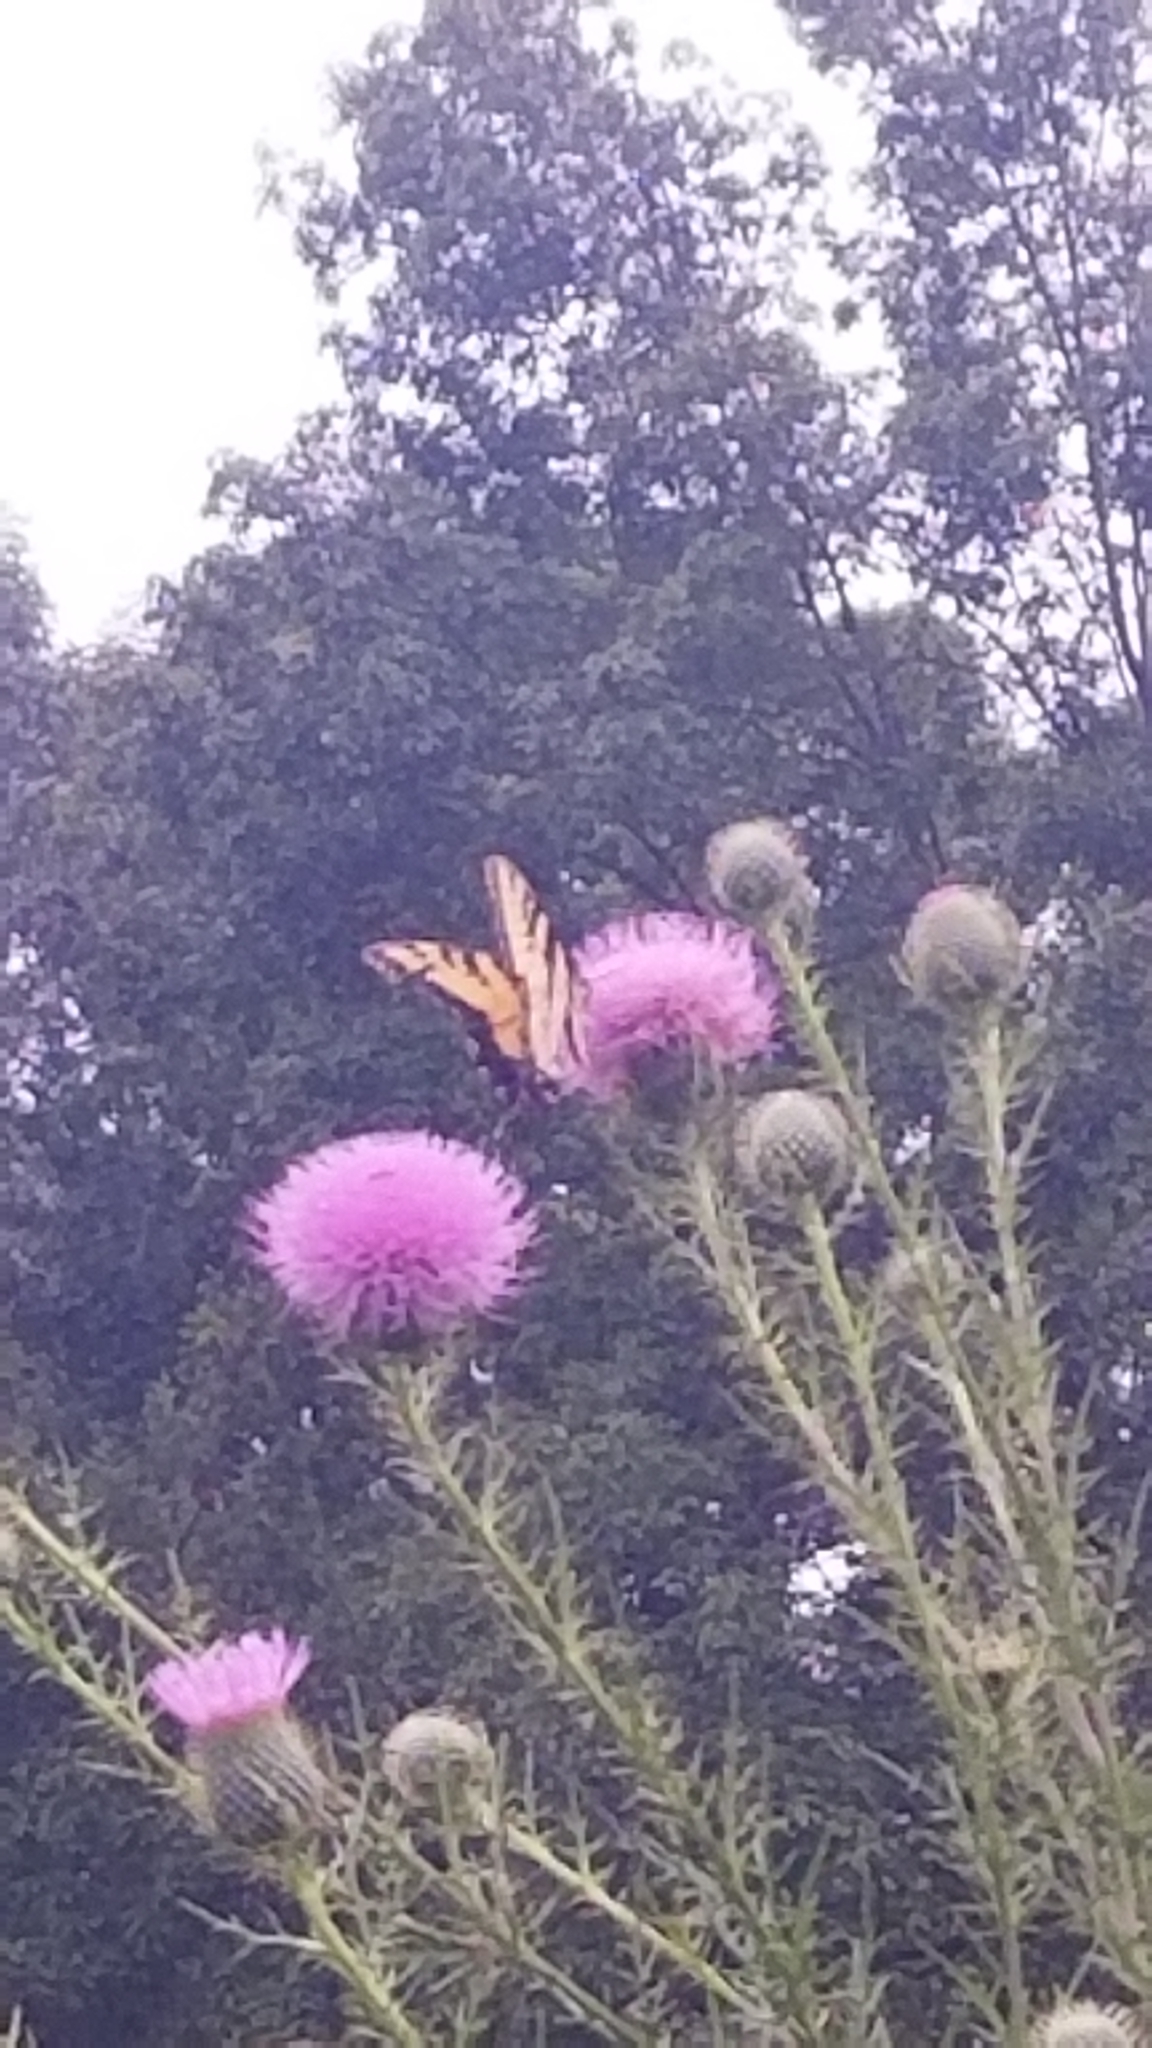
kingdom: Animalia
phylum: Arthropoda
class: Insecta
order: Lepidoptera
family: Papilionidae
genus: Papilio
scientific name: Papilio glaucus
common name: Tiger swallowtail
